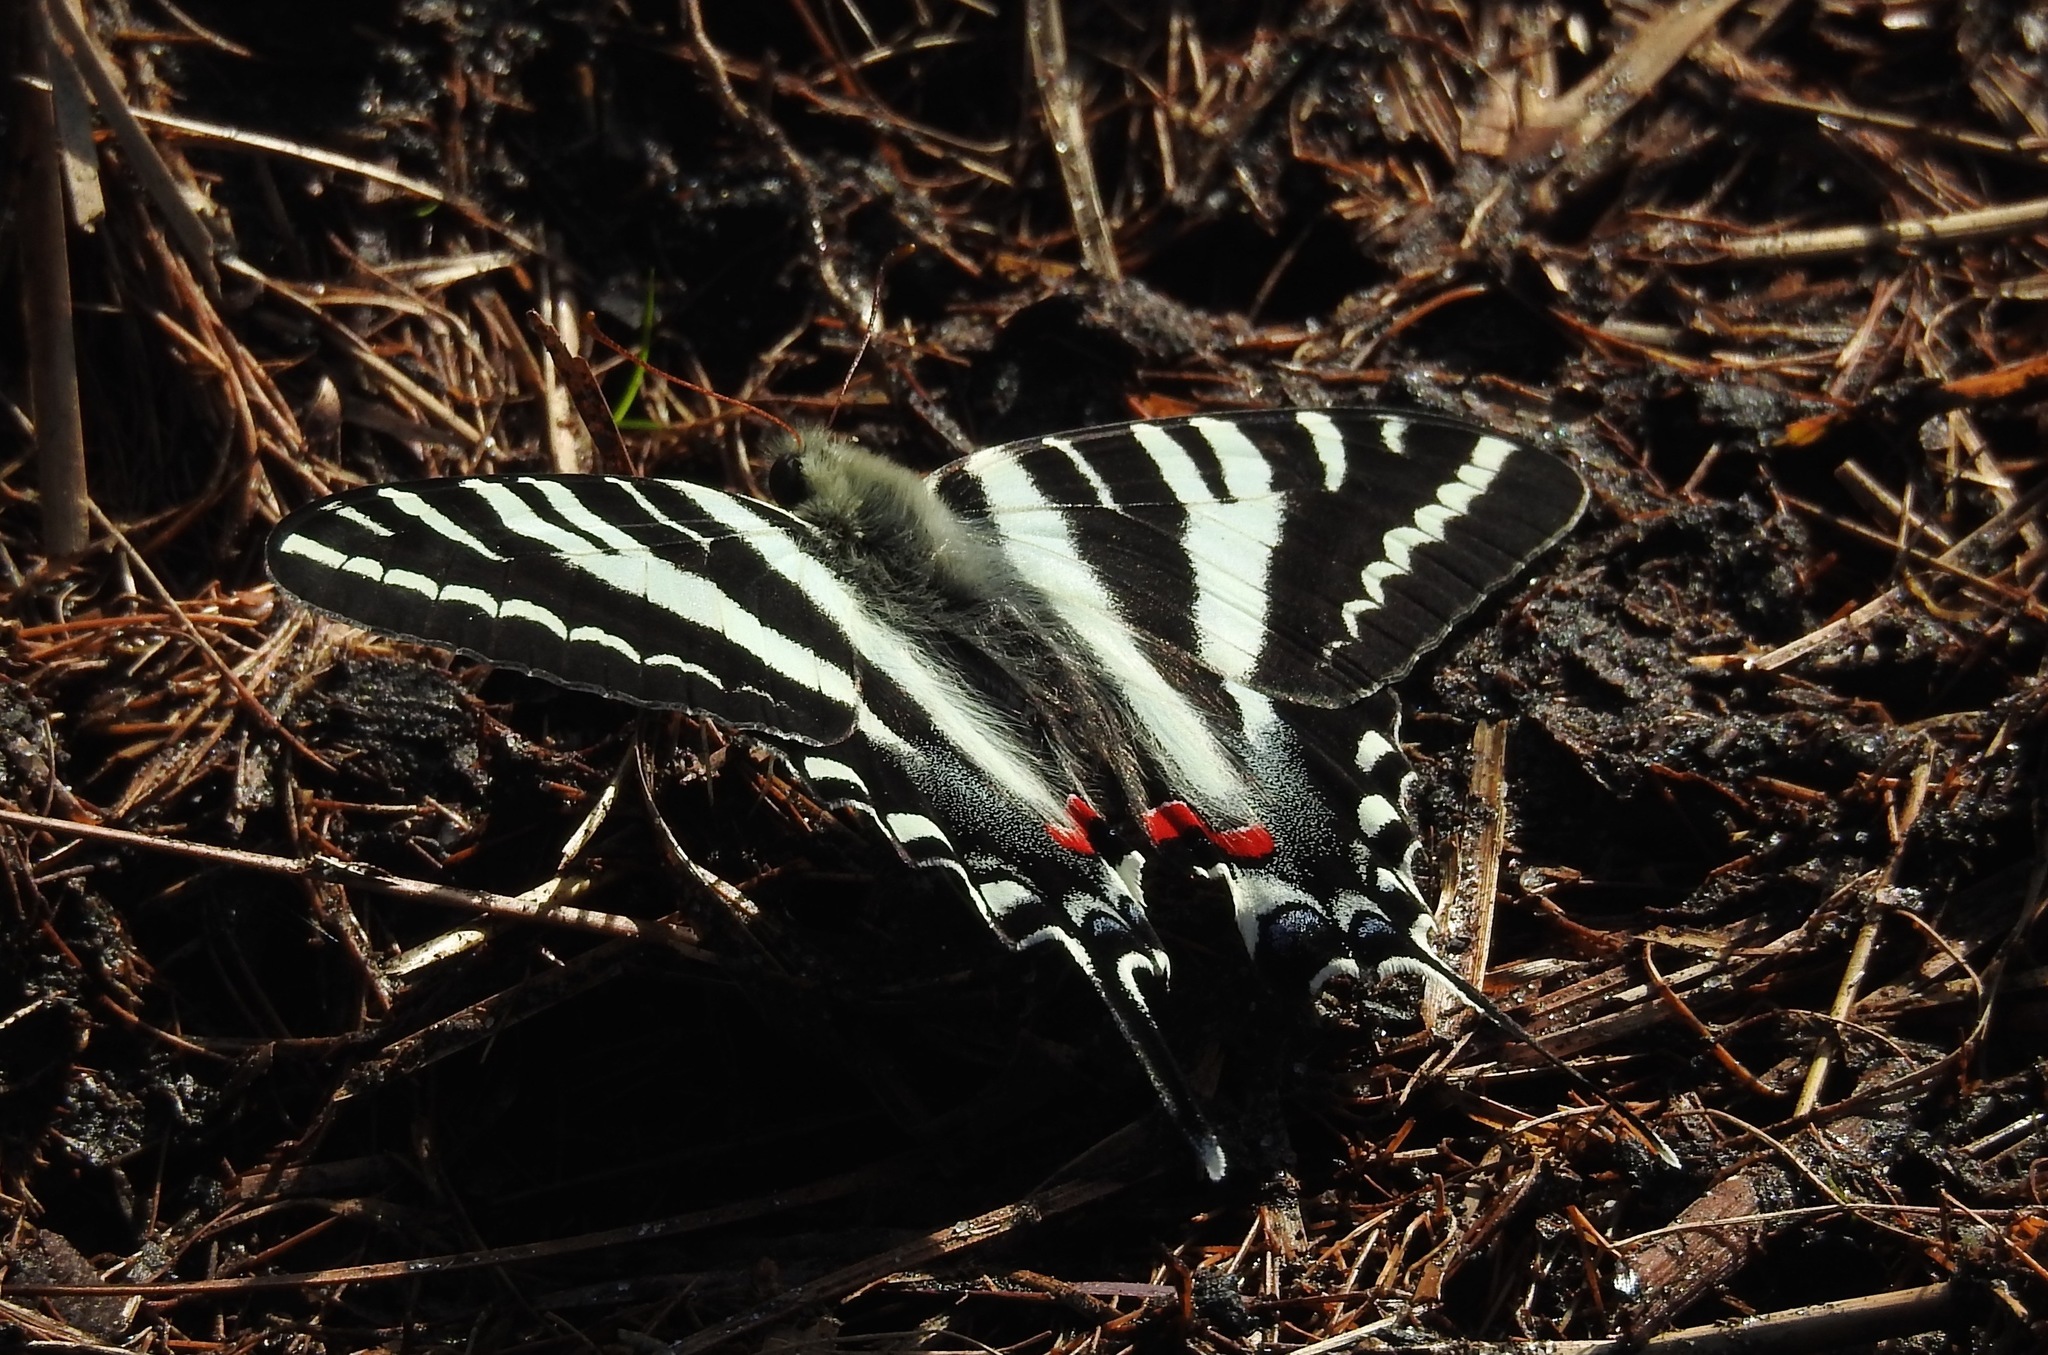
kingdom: Animalia
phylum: Arthropoda
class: Insecta
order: Lepidoptera
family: Papilionidae
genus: Protographium
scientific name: Protographium marcellus
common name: Zebra swallowtail
